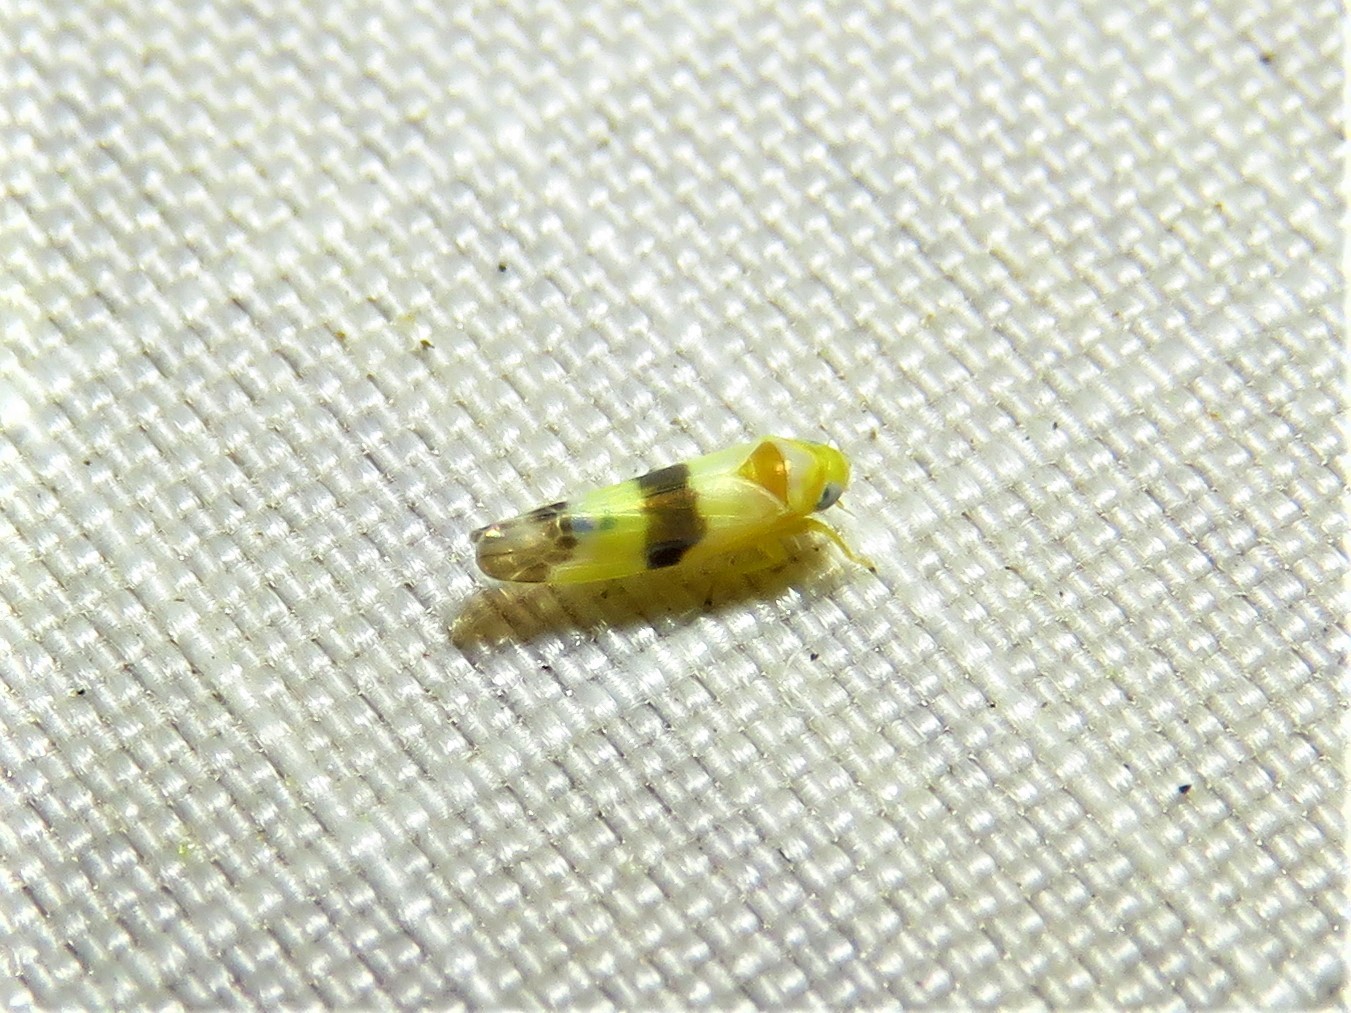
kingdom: Animalia
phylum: Arthropoda
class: Insecta
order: Hemiptera
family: Cicadellidae
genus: Empoa
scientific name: Empoa venusta
